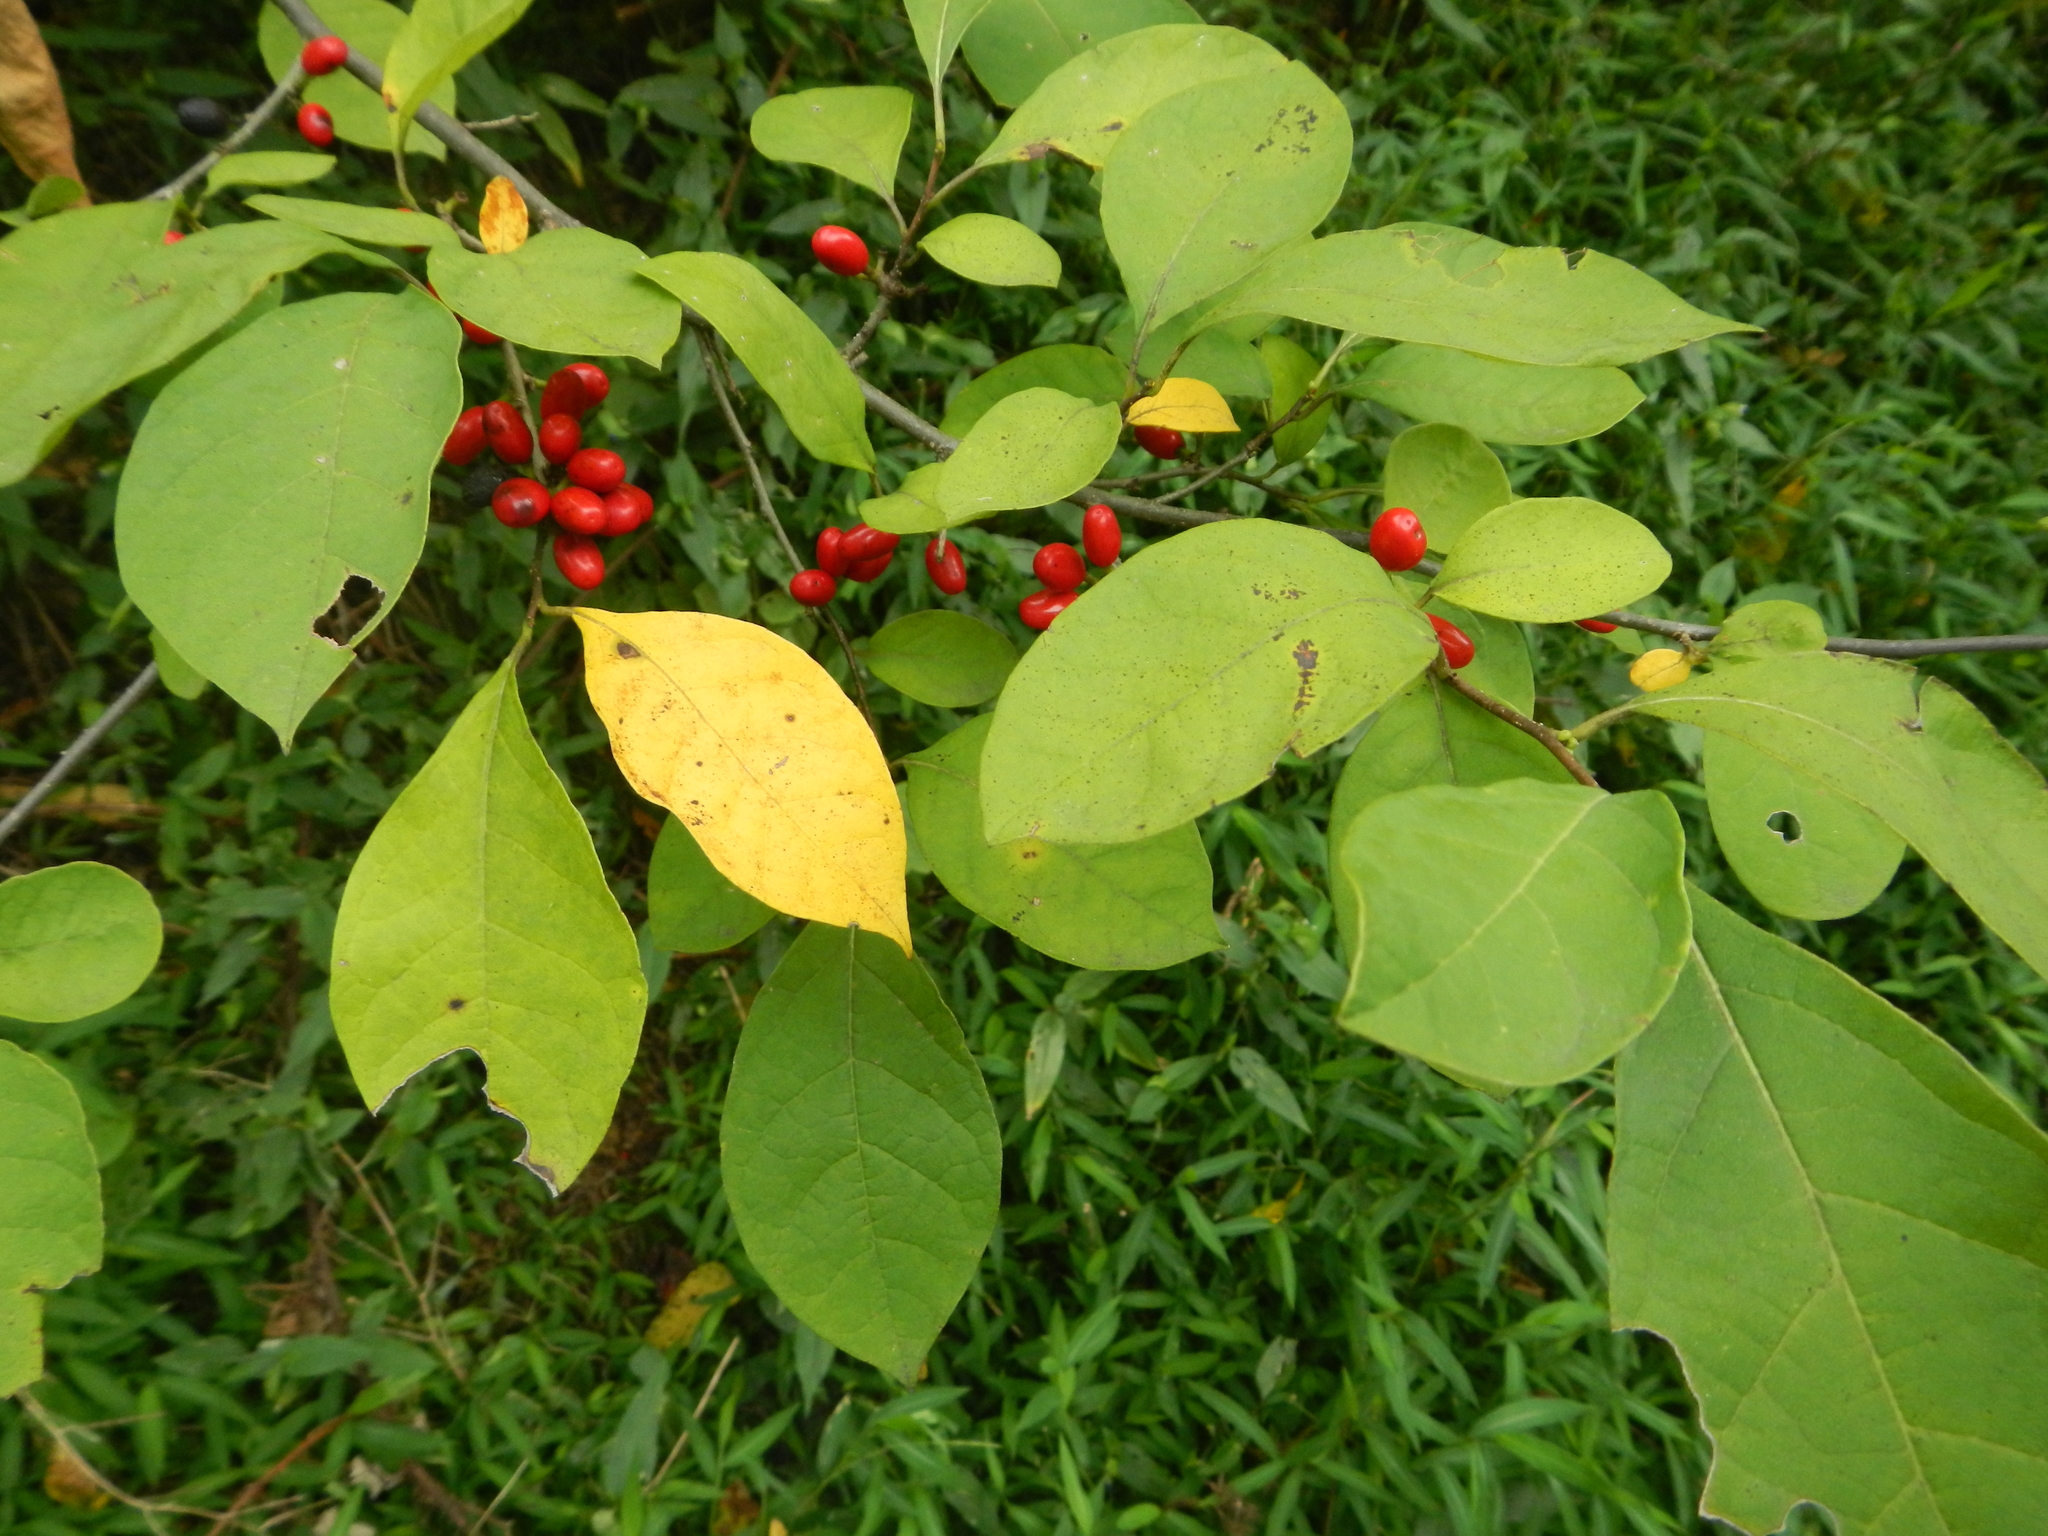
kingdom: Plantae
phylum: Tracheophyta
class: Magnoliopsida
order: Laurales
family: Lauraceae
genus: Lindera
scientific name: Lindera benzoin
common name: Spicebush
